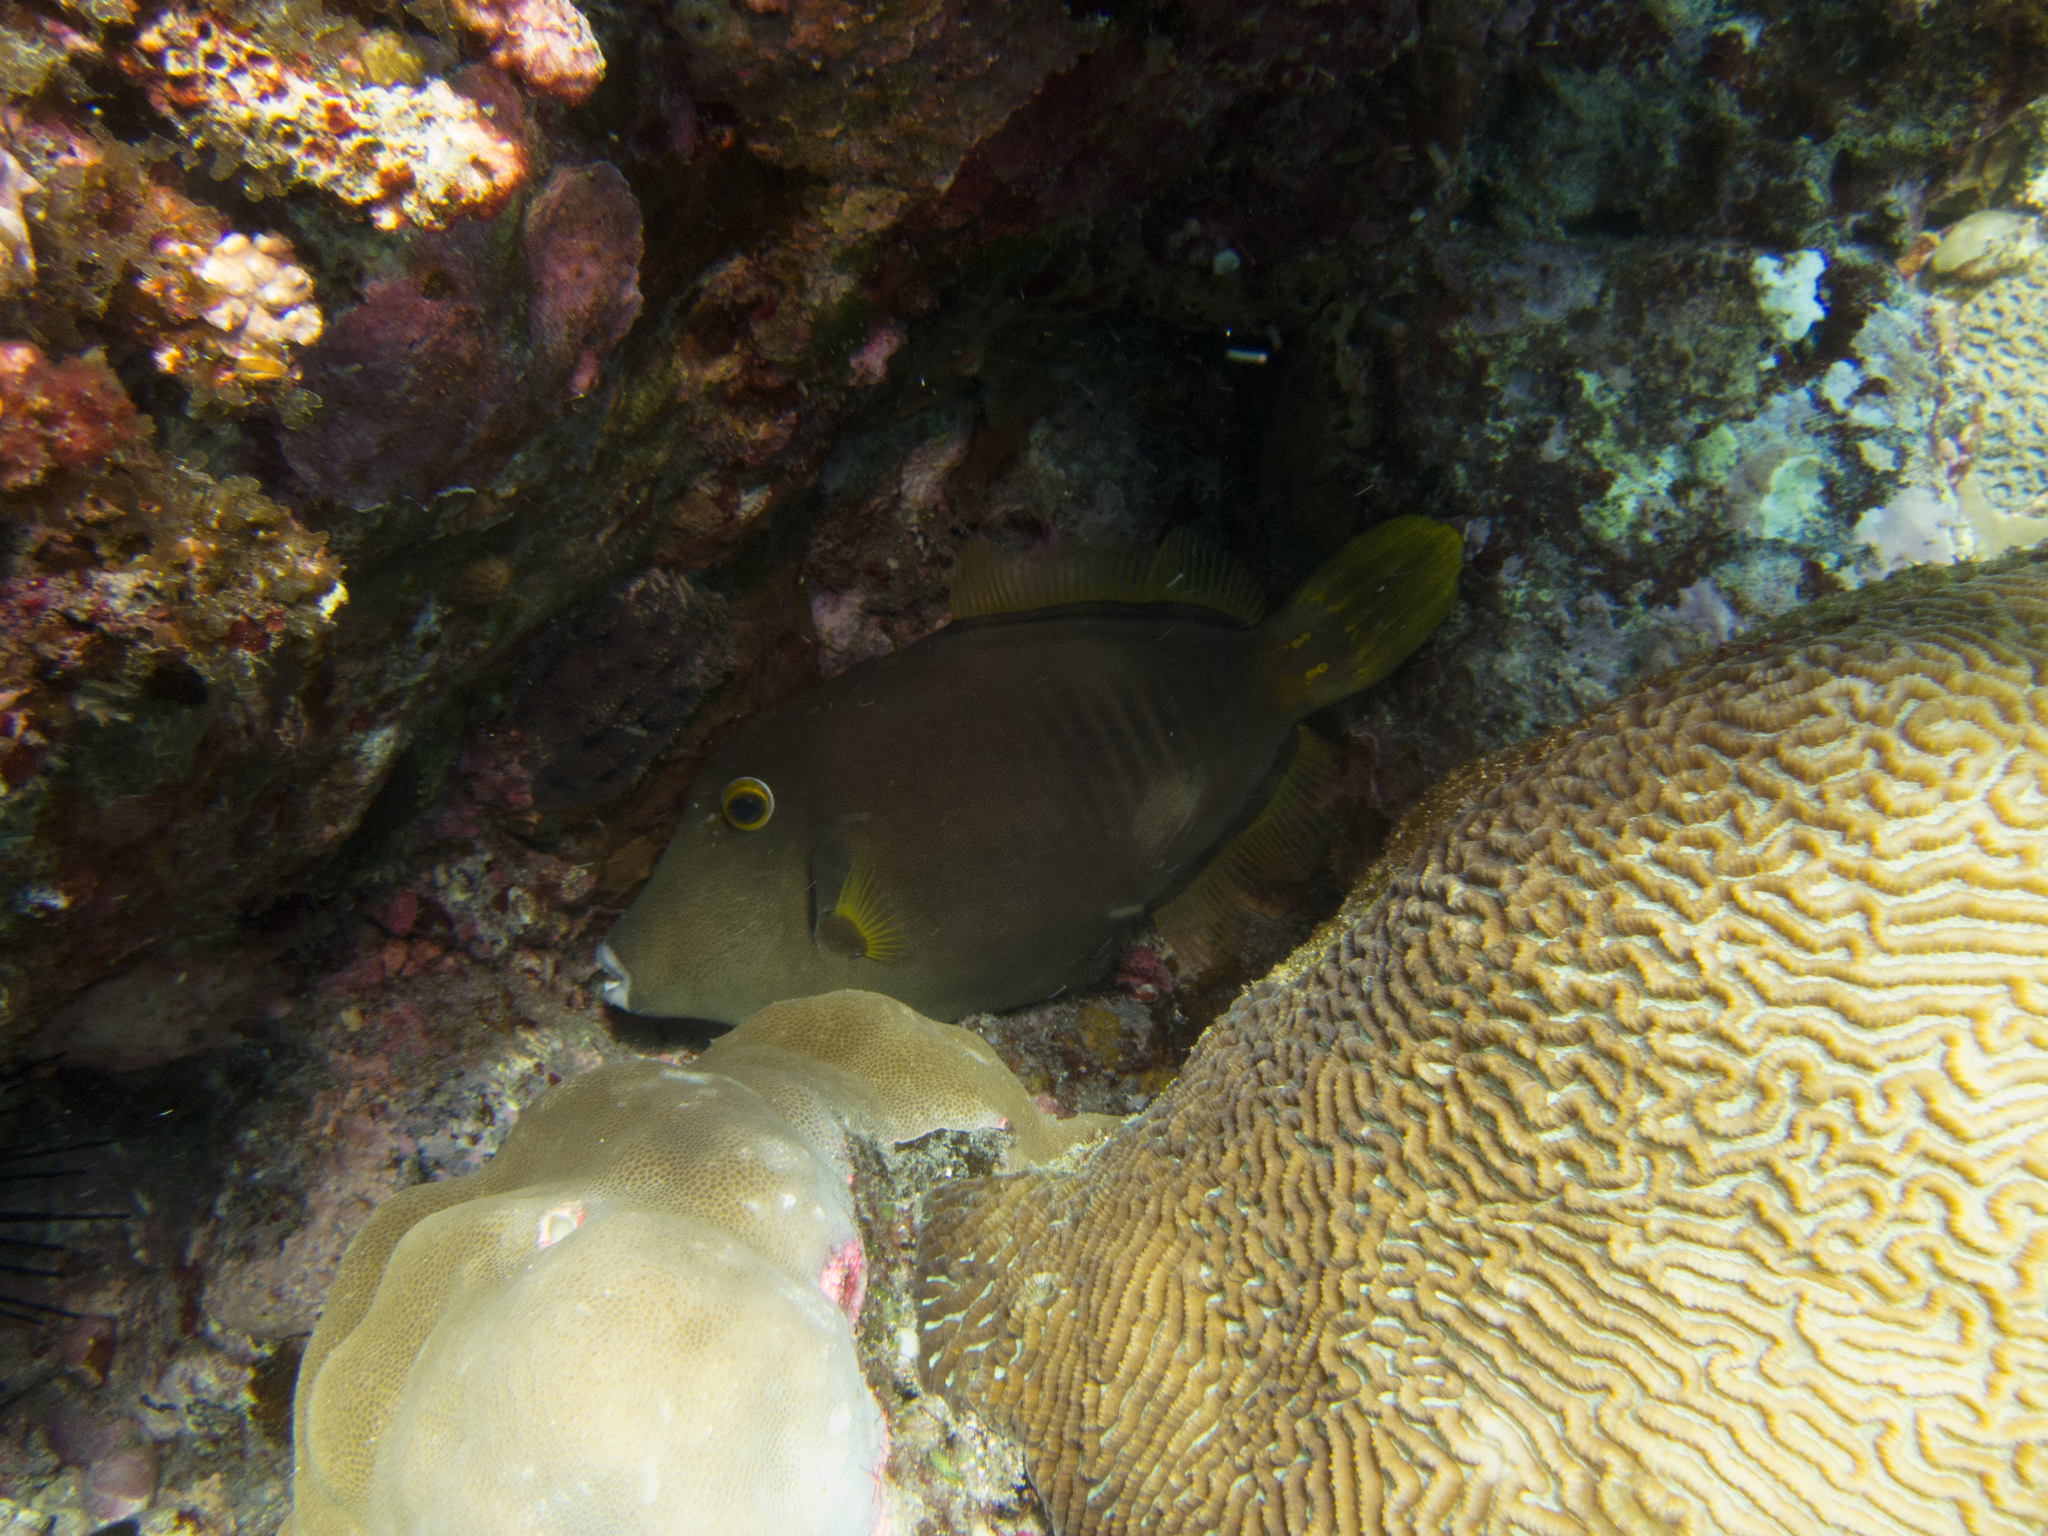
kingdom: Animalia
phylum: Chordata
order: Tetraodontiformes
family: Monacanthidae
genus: Cantherhines
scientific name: Cantherhines dumerilii
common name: Barred filefish
